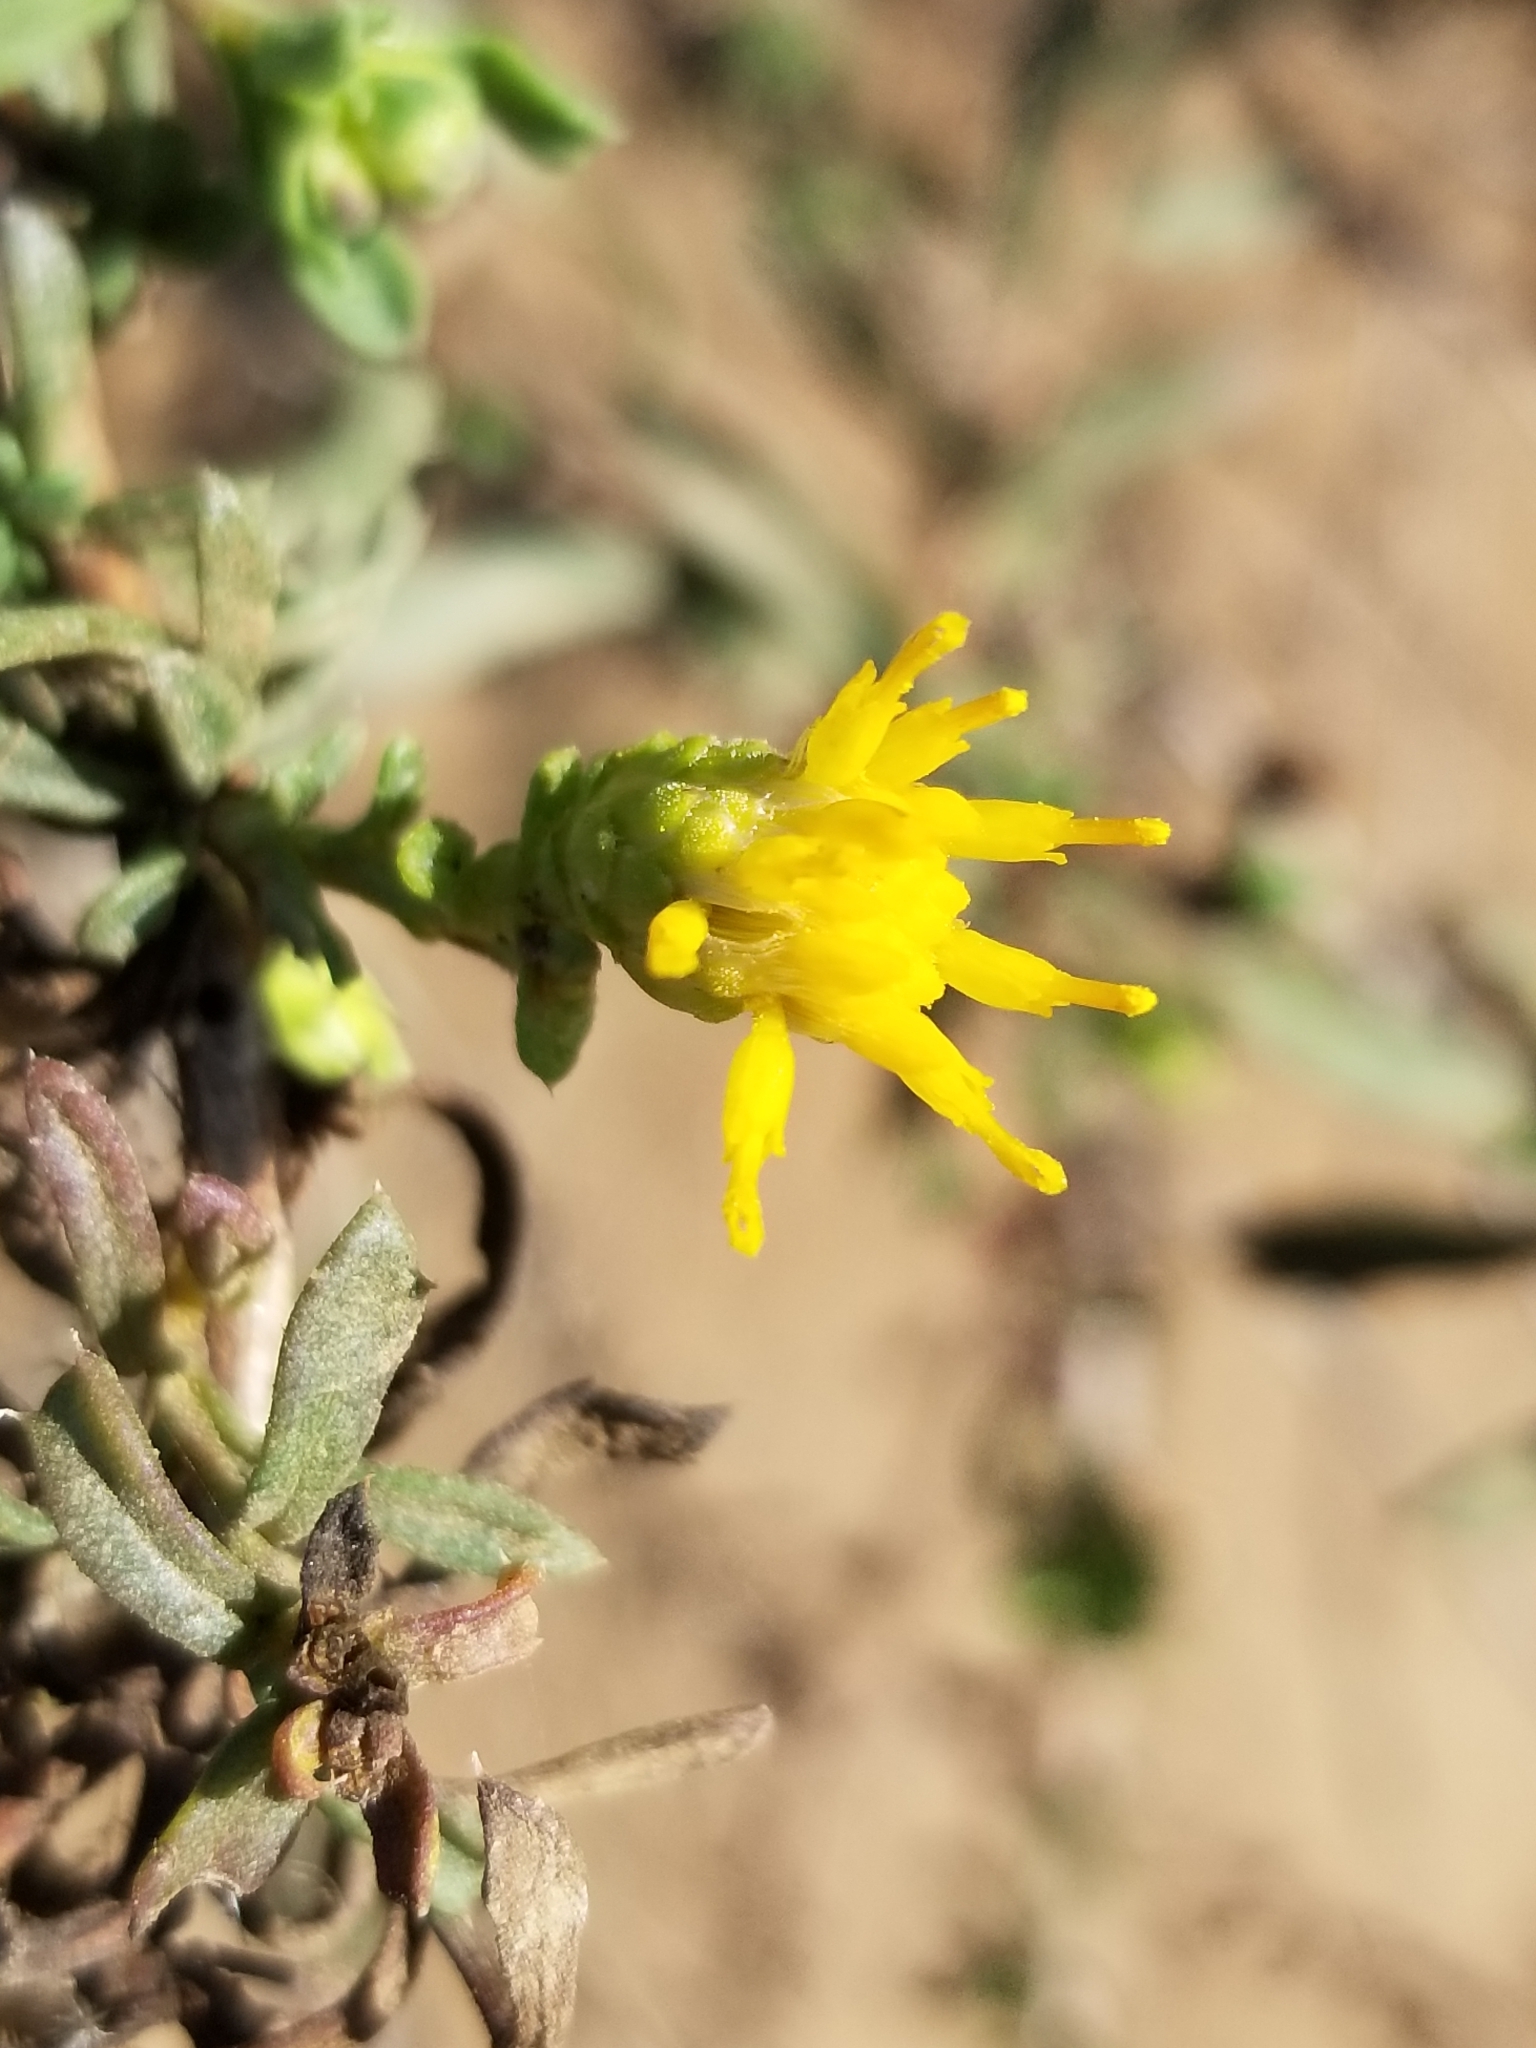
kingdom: Plantae
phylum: Tracheophyta
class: Magnoliopsida
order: Asterales
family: Asteraceae
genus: Isocoma
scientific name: Isocoma menziesii
